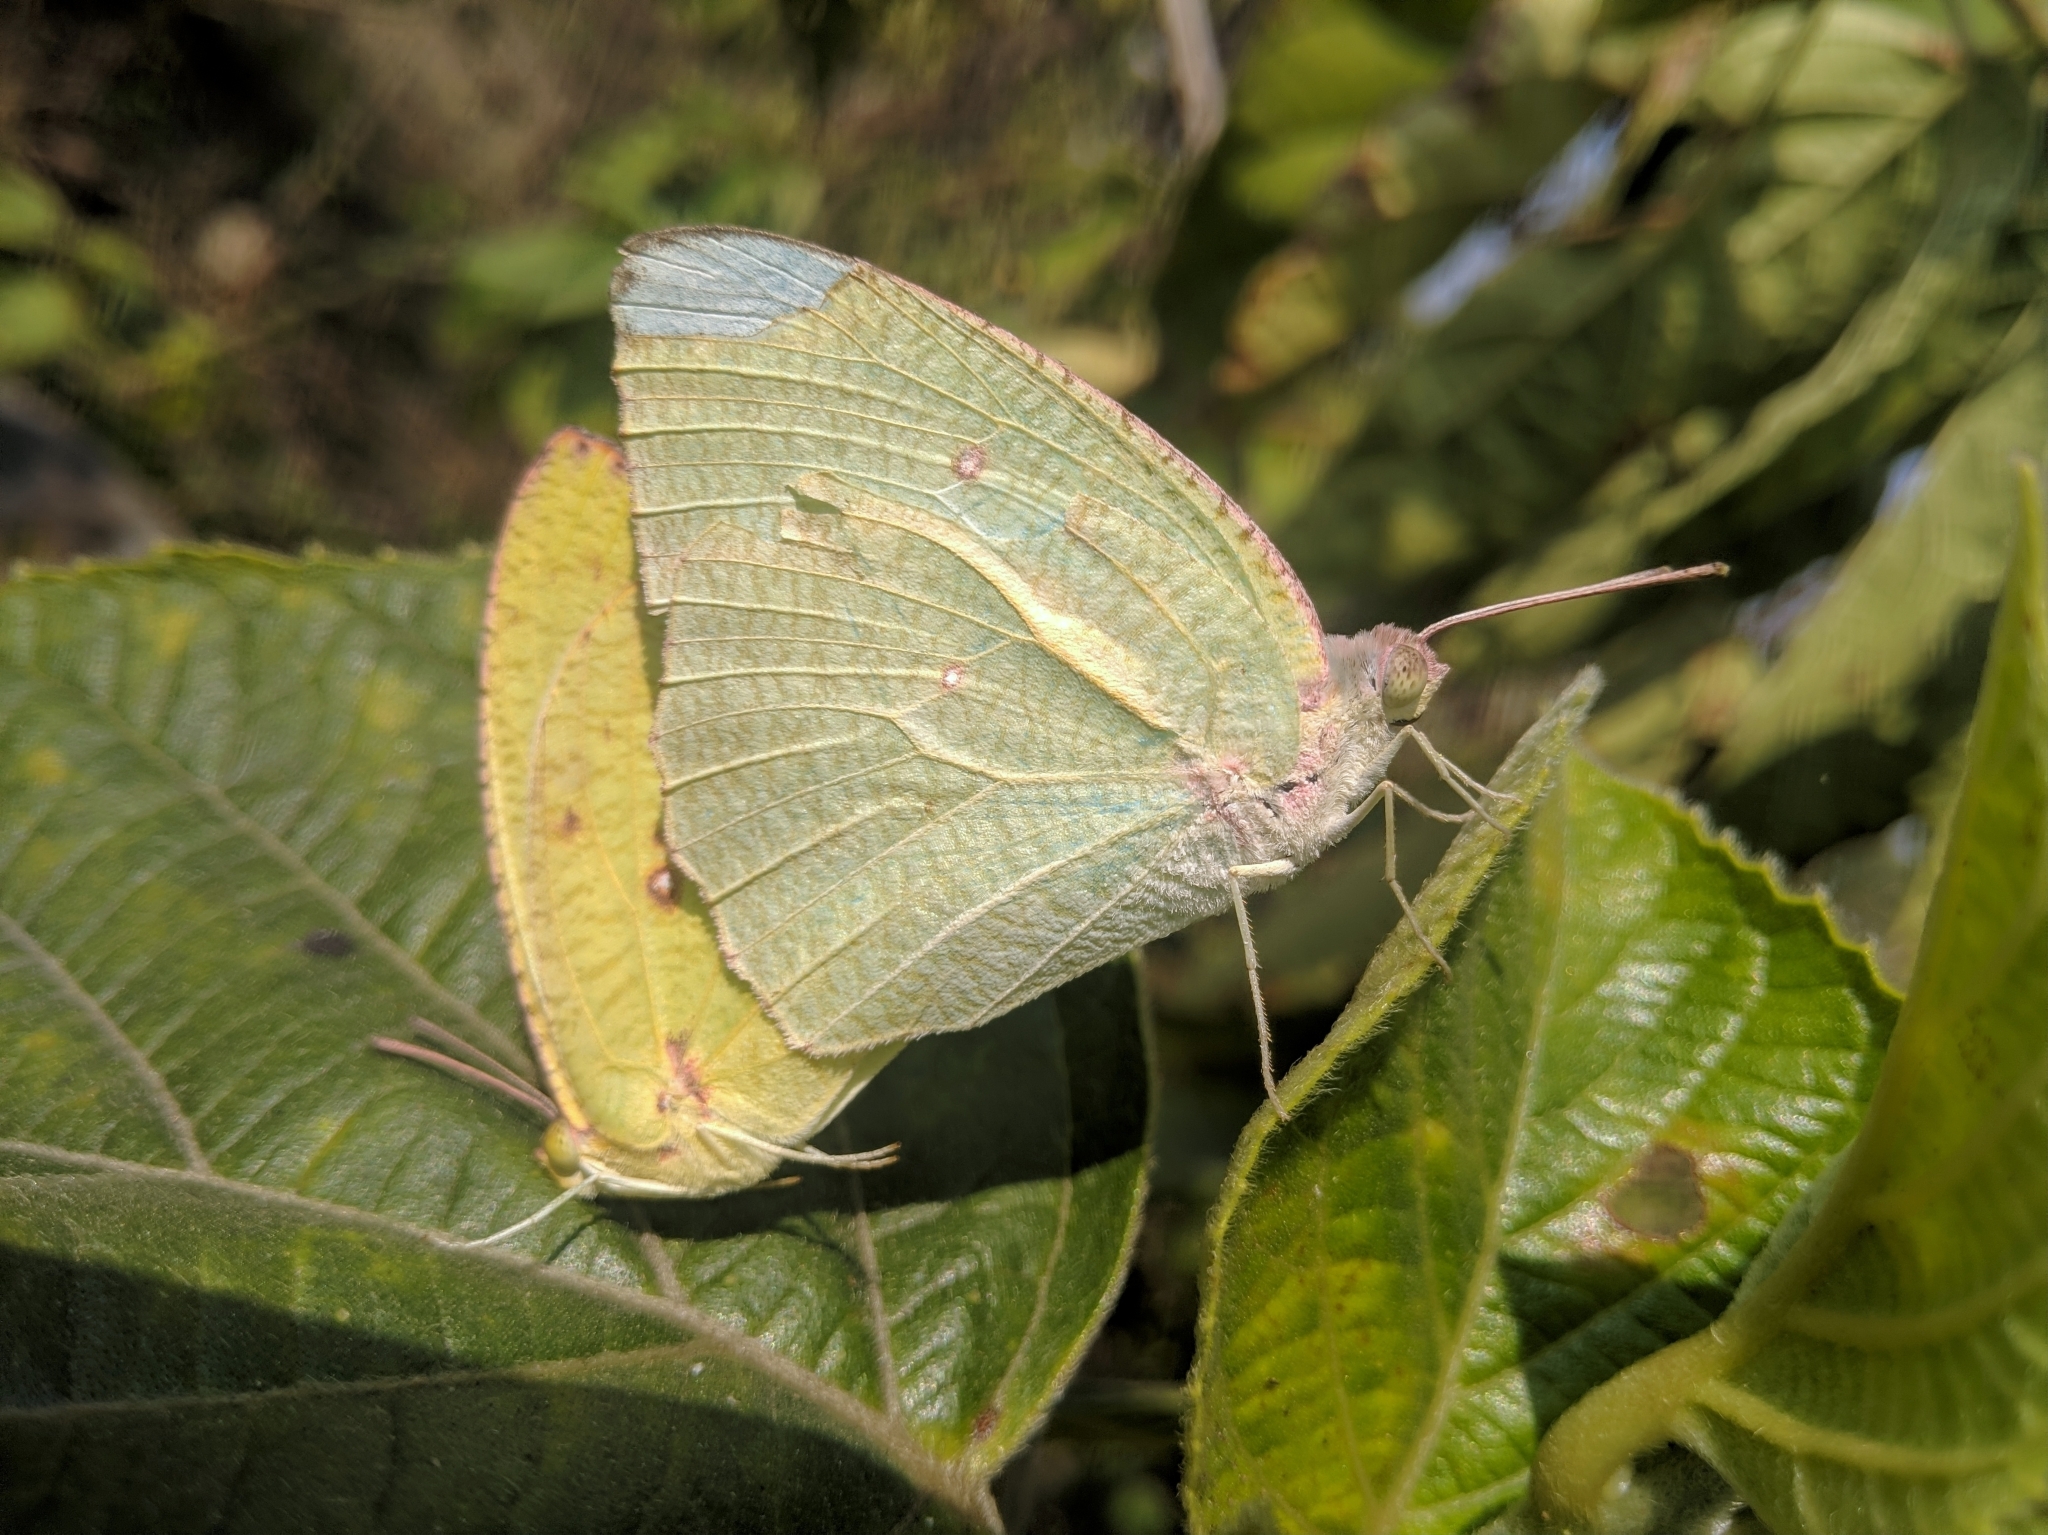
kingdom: Animalia
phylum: Arthropoda
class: Insecta
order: Lepidoptera
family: Pieridae
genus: Catopsilia
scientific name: Catopsilia pyranthe
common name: Mottled emigrant
